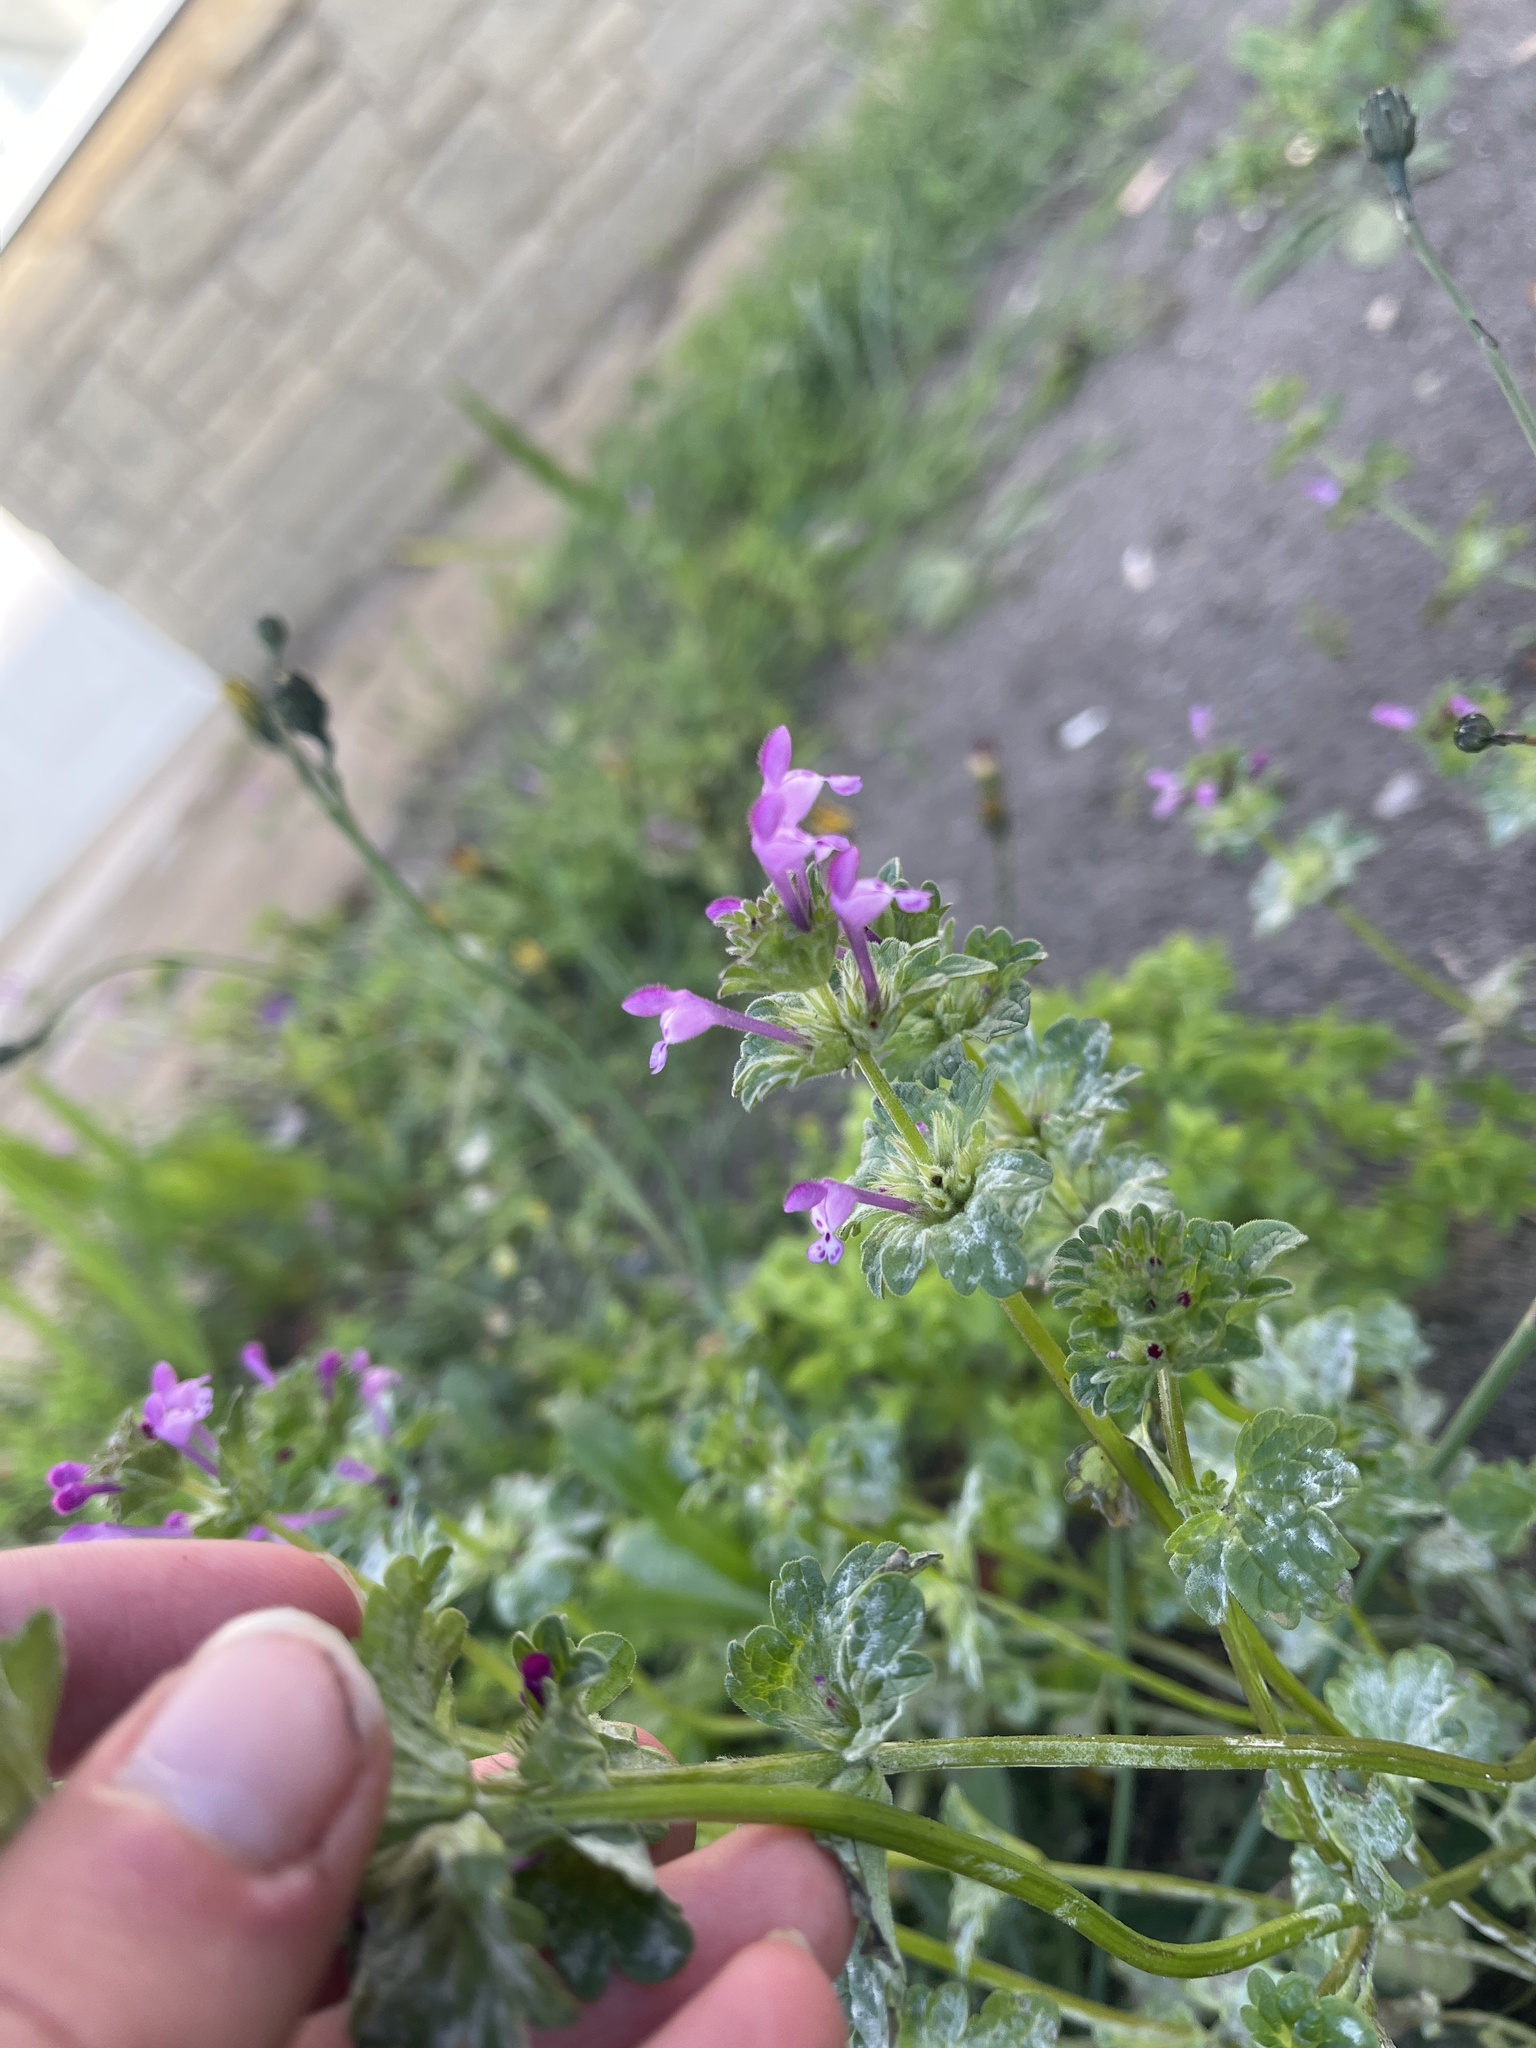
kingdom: Plantae
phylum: Tracheophyta
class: Magnoliopsida
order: Lamiales
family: Lamiaceae
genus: Lamium
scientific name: Lamium amplexicaule
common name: Henbit dead-nettle
